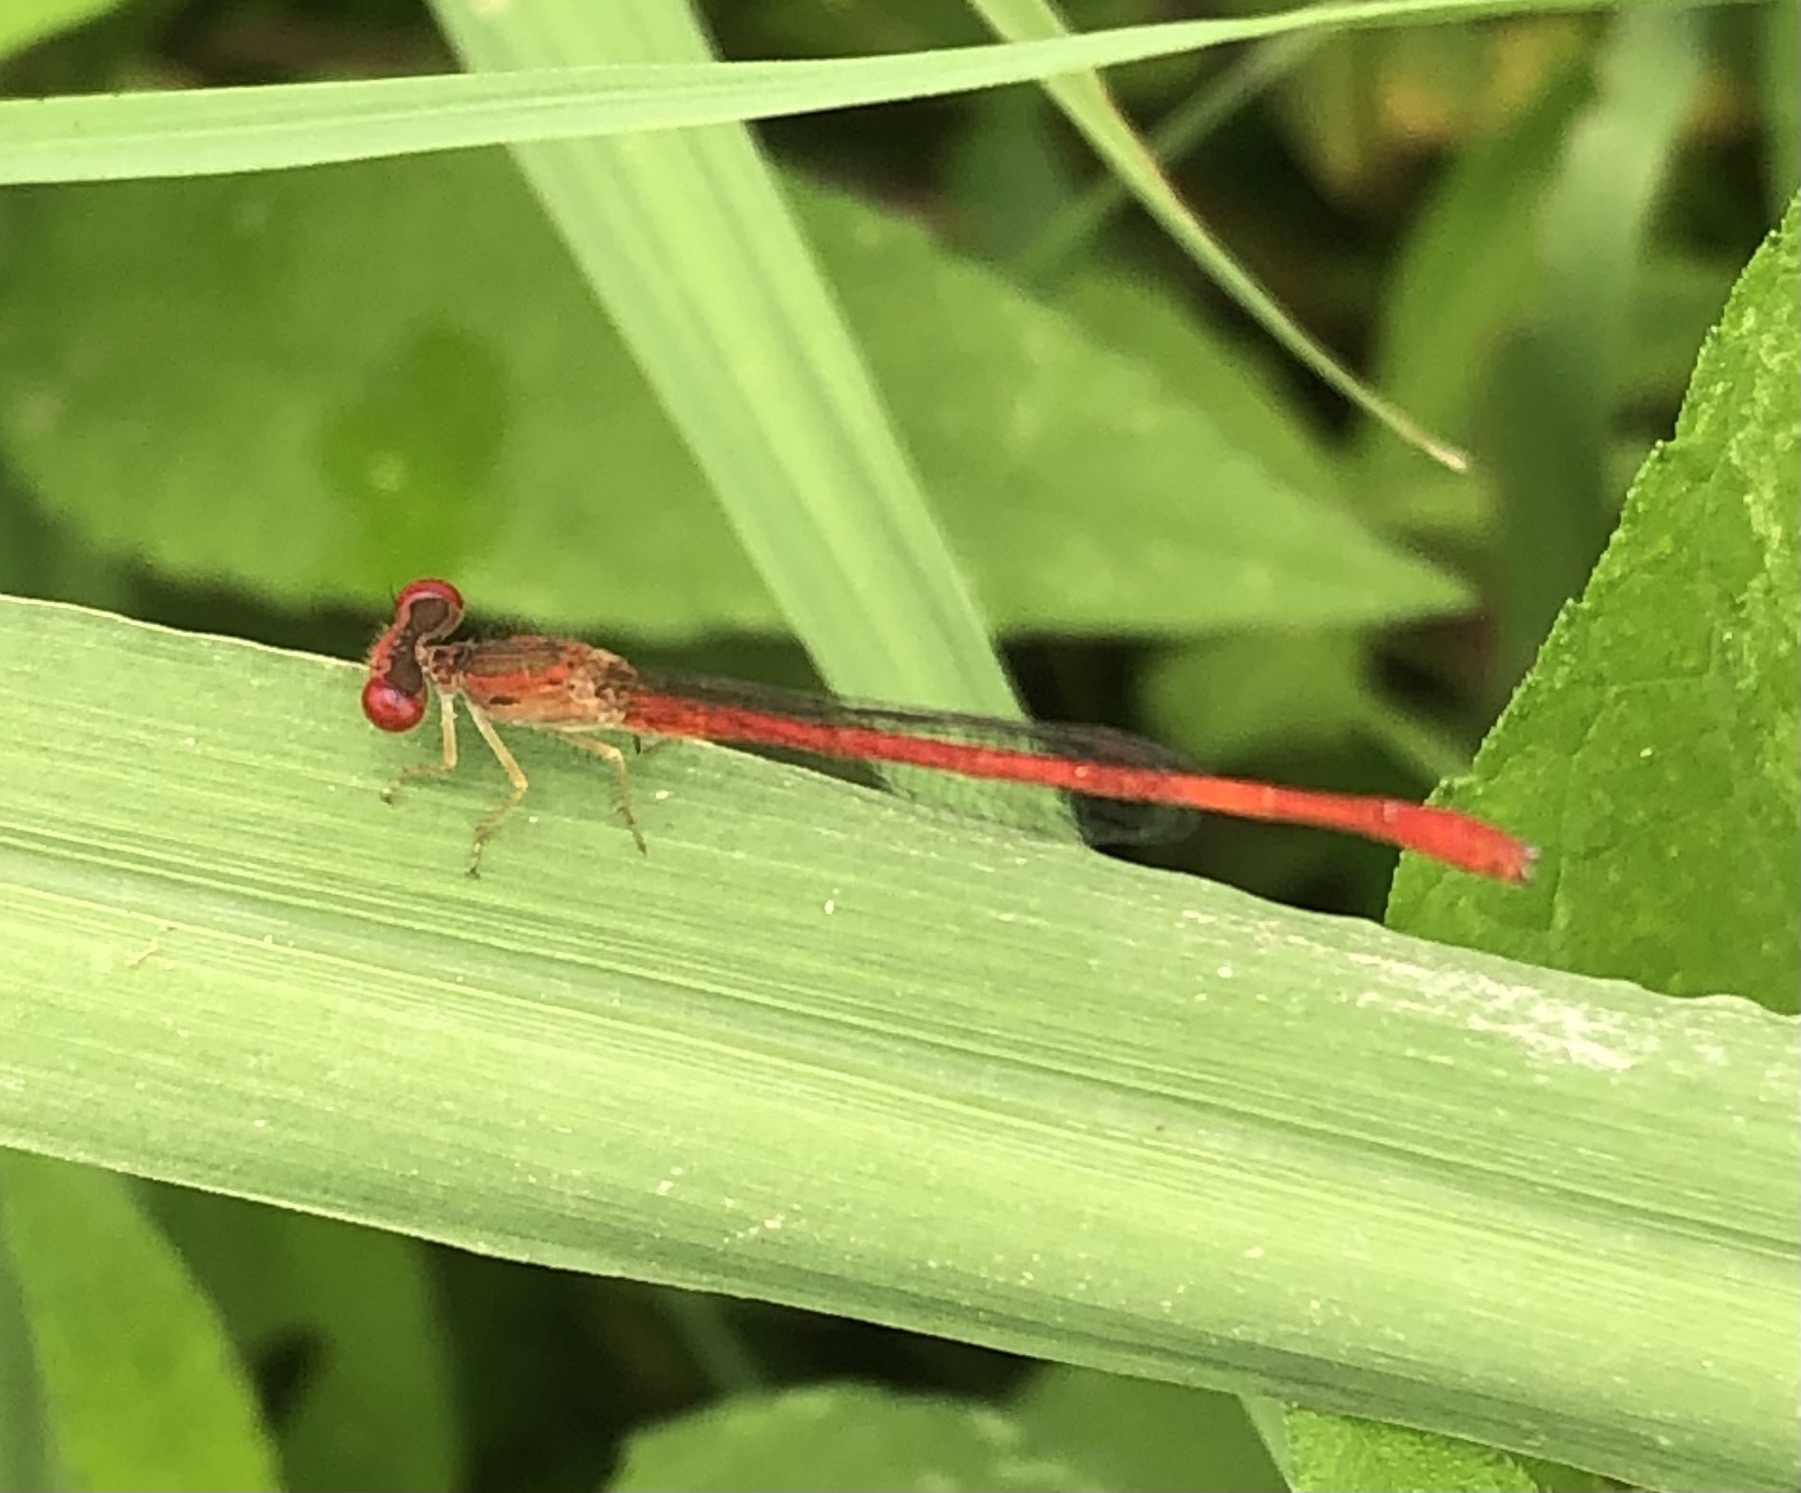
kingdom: Animalia
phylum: Arthropoda
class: Insecta
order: Odonata
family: Coenagrionidae
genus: Telebasis
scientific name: Telebasis salva
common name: Desert firetail
